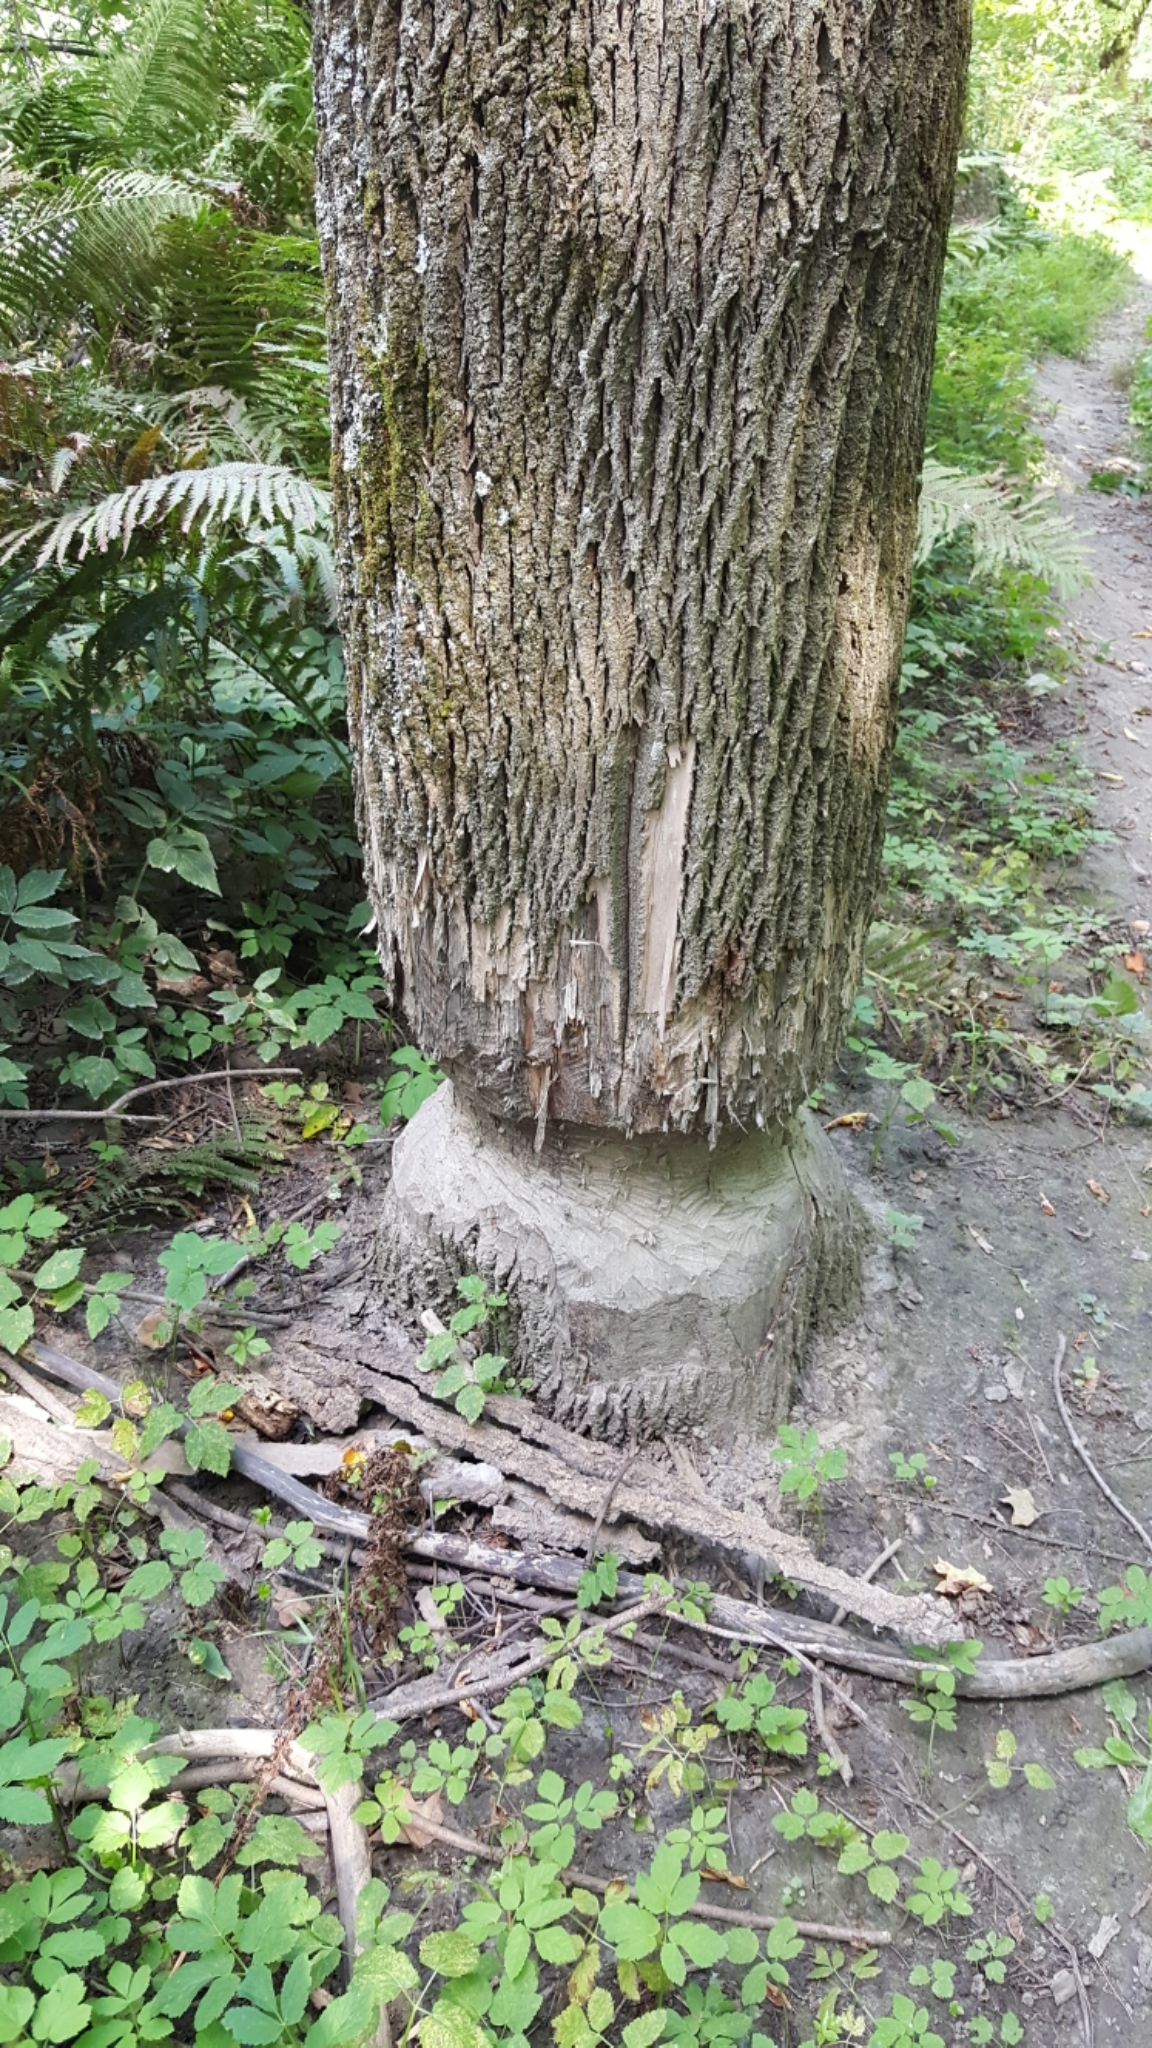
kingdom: Animalia
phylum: Chordata
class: Mammalia
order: Rodentia
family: Castoridae
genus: Castor
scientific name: Castor canadensis
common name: American beaver
